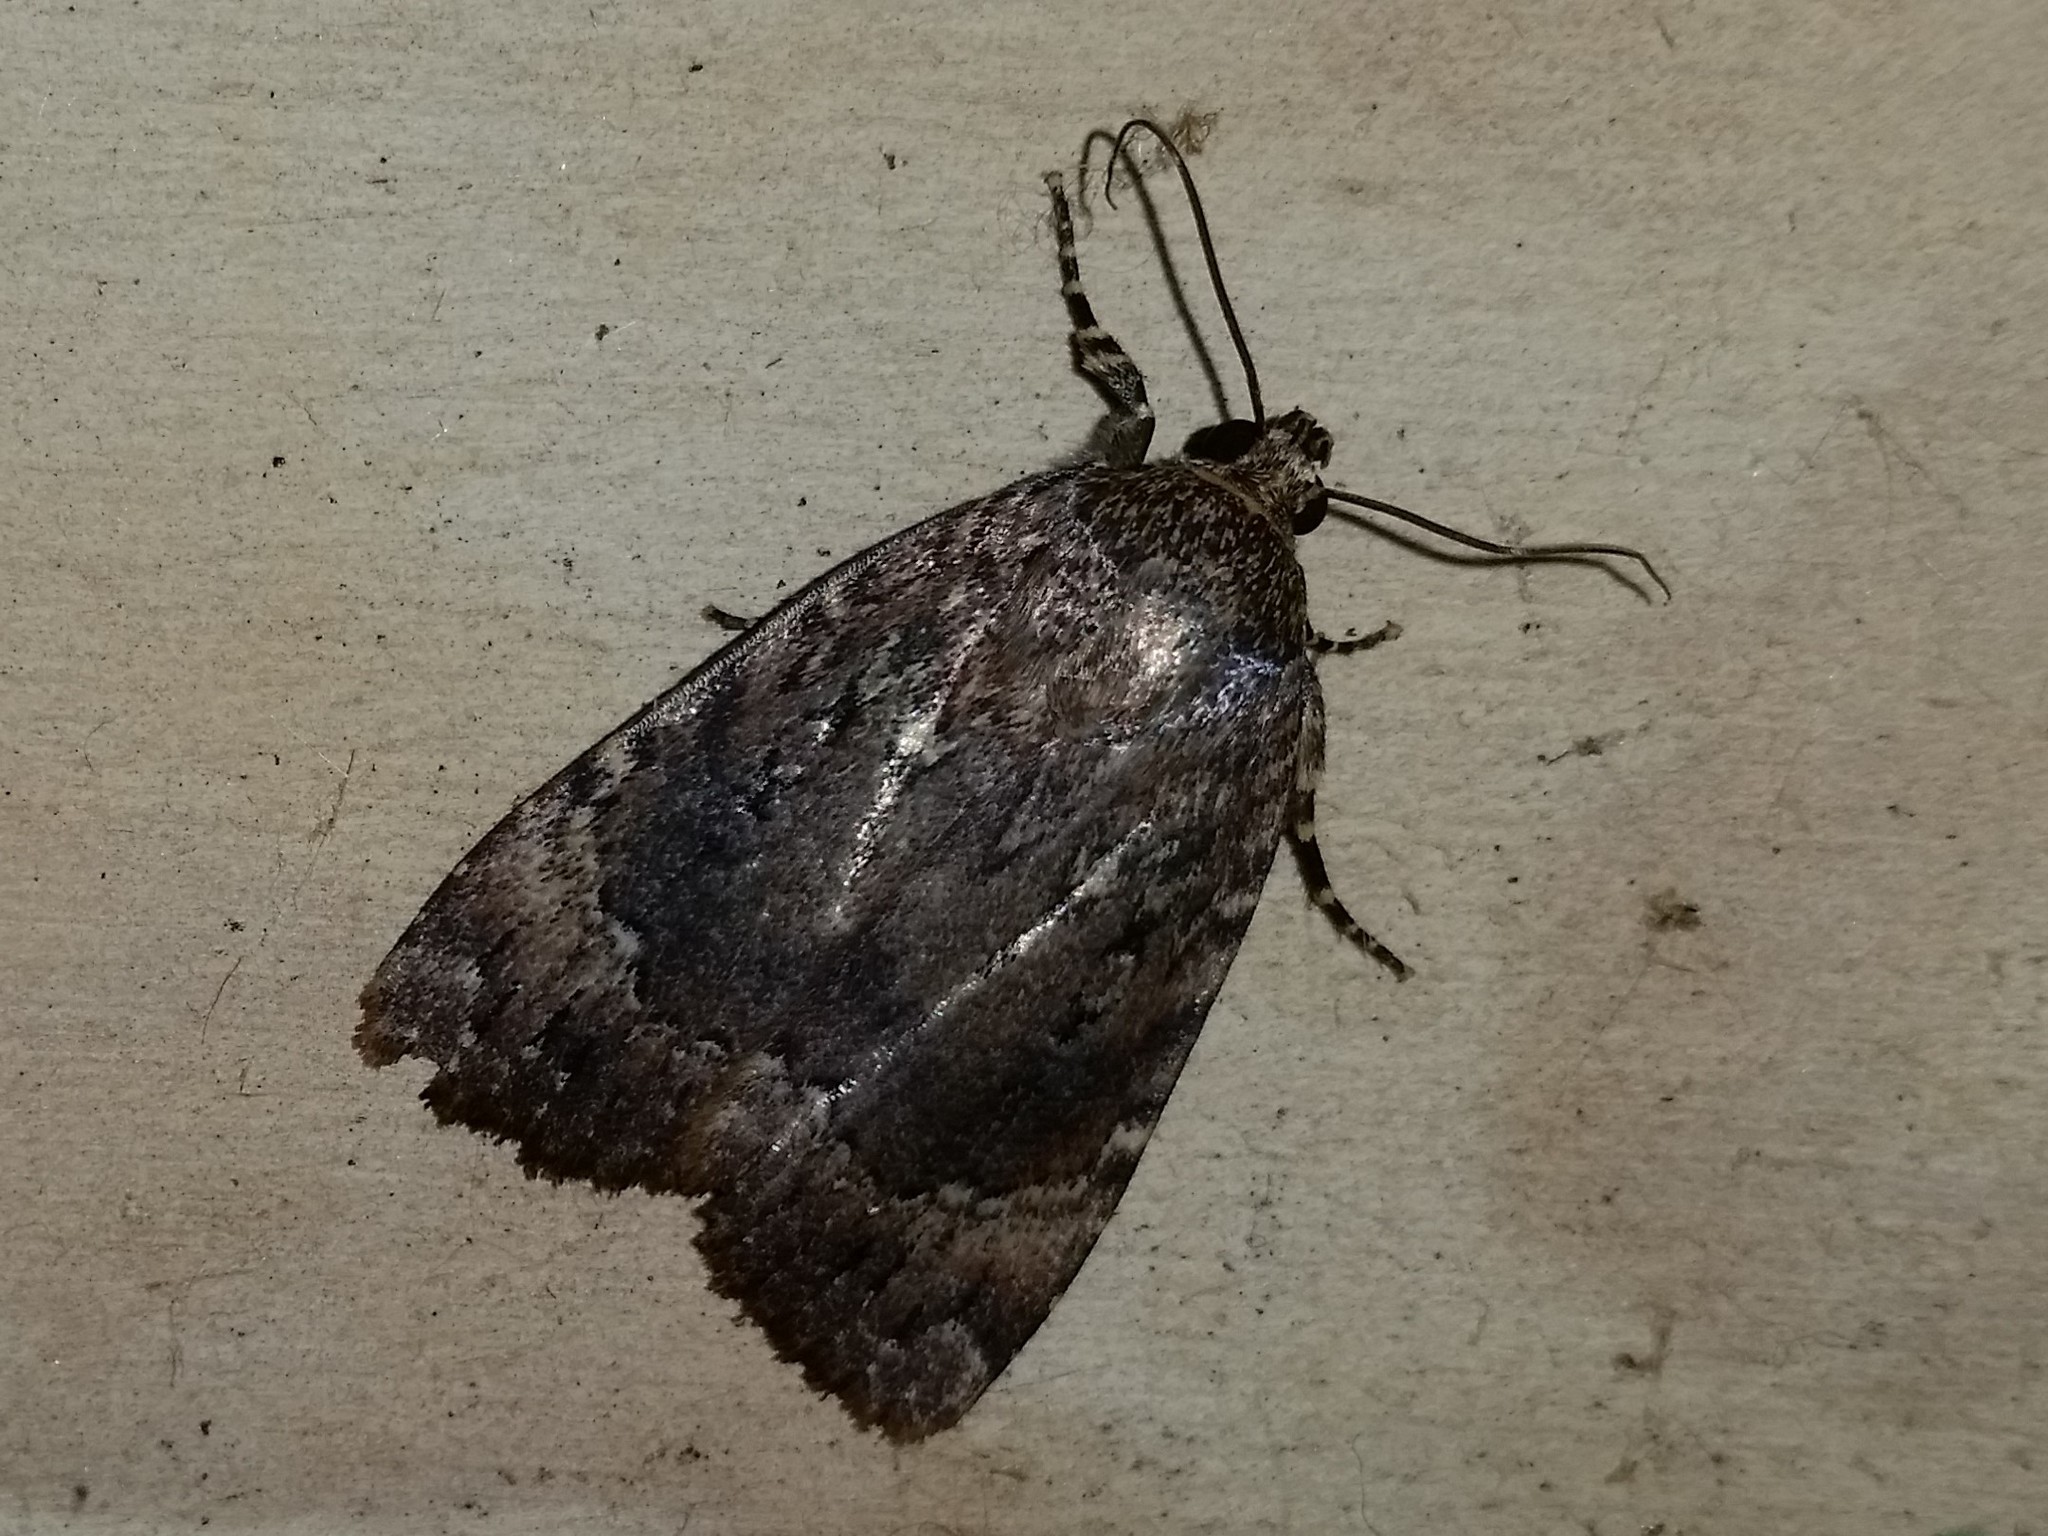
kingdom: Animalia
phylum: Arthropoda
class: Insecta
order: Lepidoptera
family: Noctuidae
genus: Amphipyra
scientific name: Amphipyra pyramidoides
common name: American copper underwing
